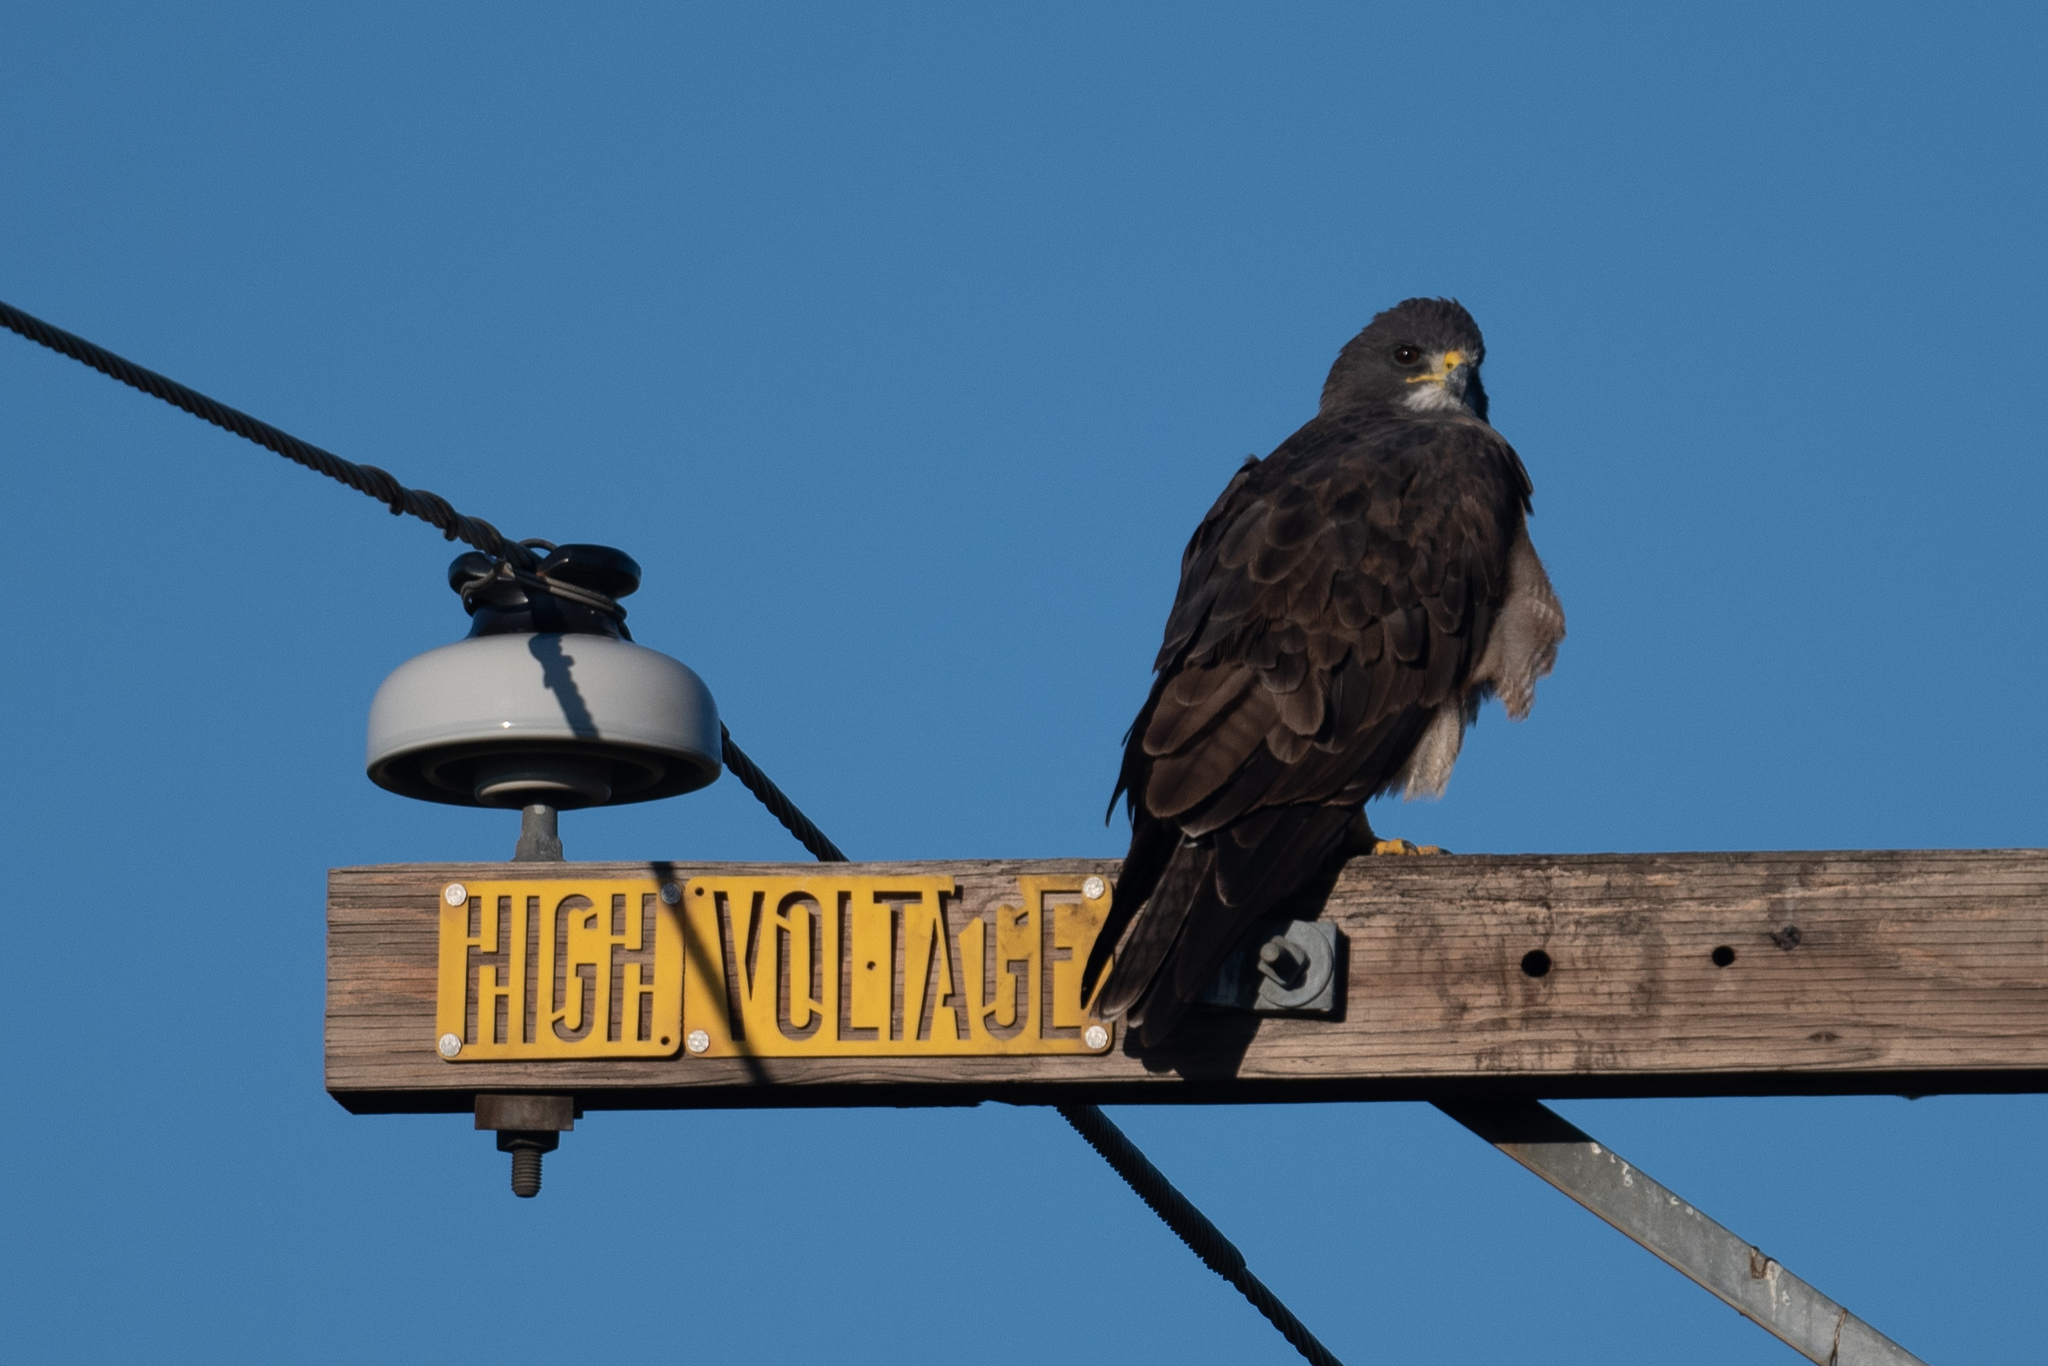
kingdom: Animalia
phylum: Chordata
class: Aves
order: Accipitriformes
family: Accipitridae
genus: Buteo
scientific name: Buteo swainsoni
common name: Swainson's hawk
